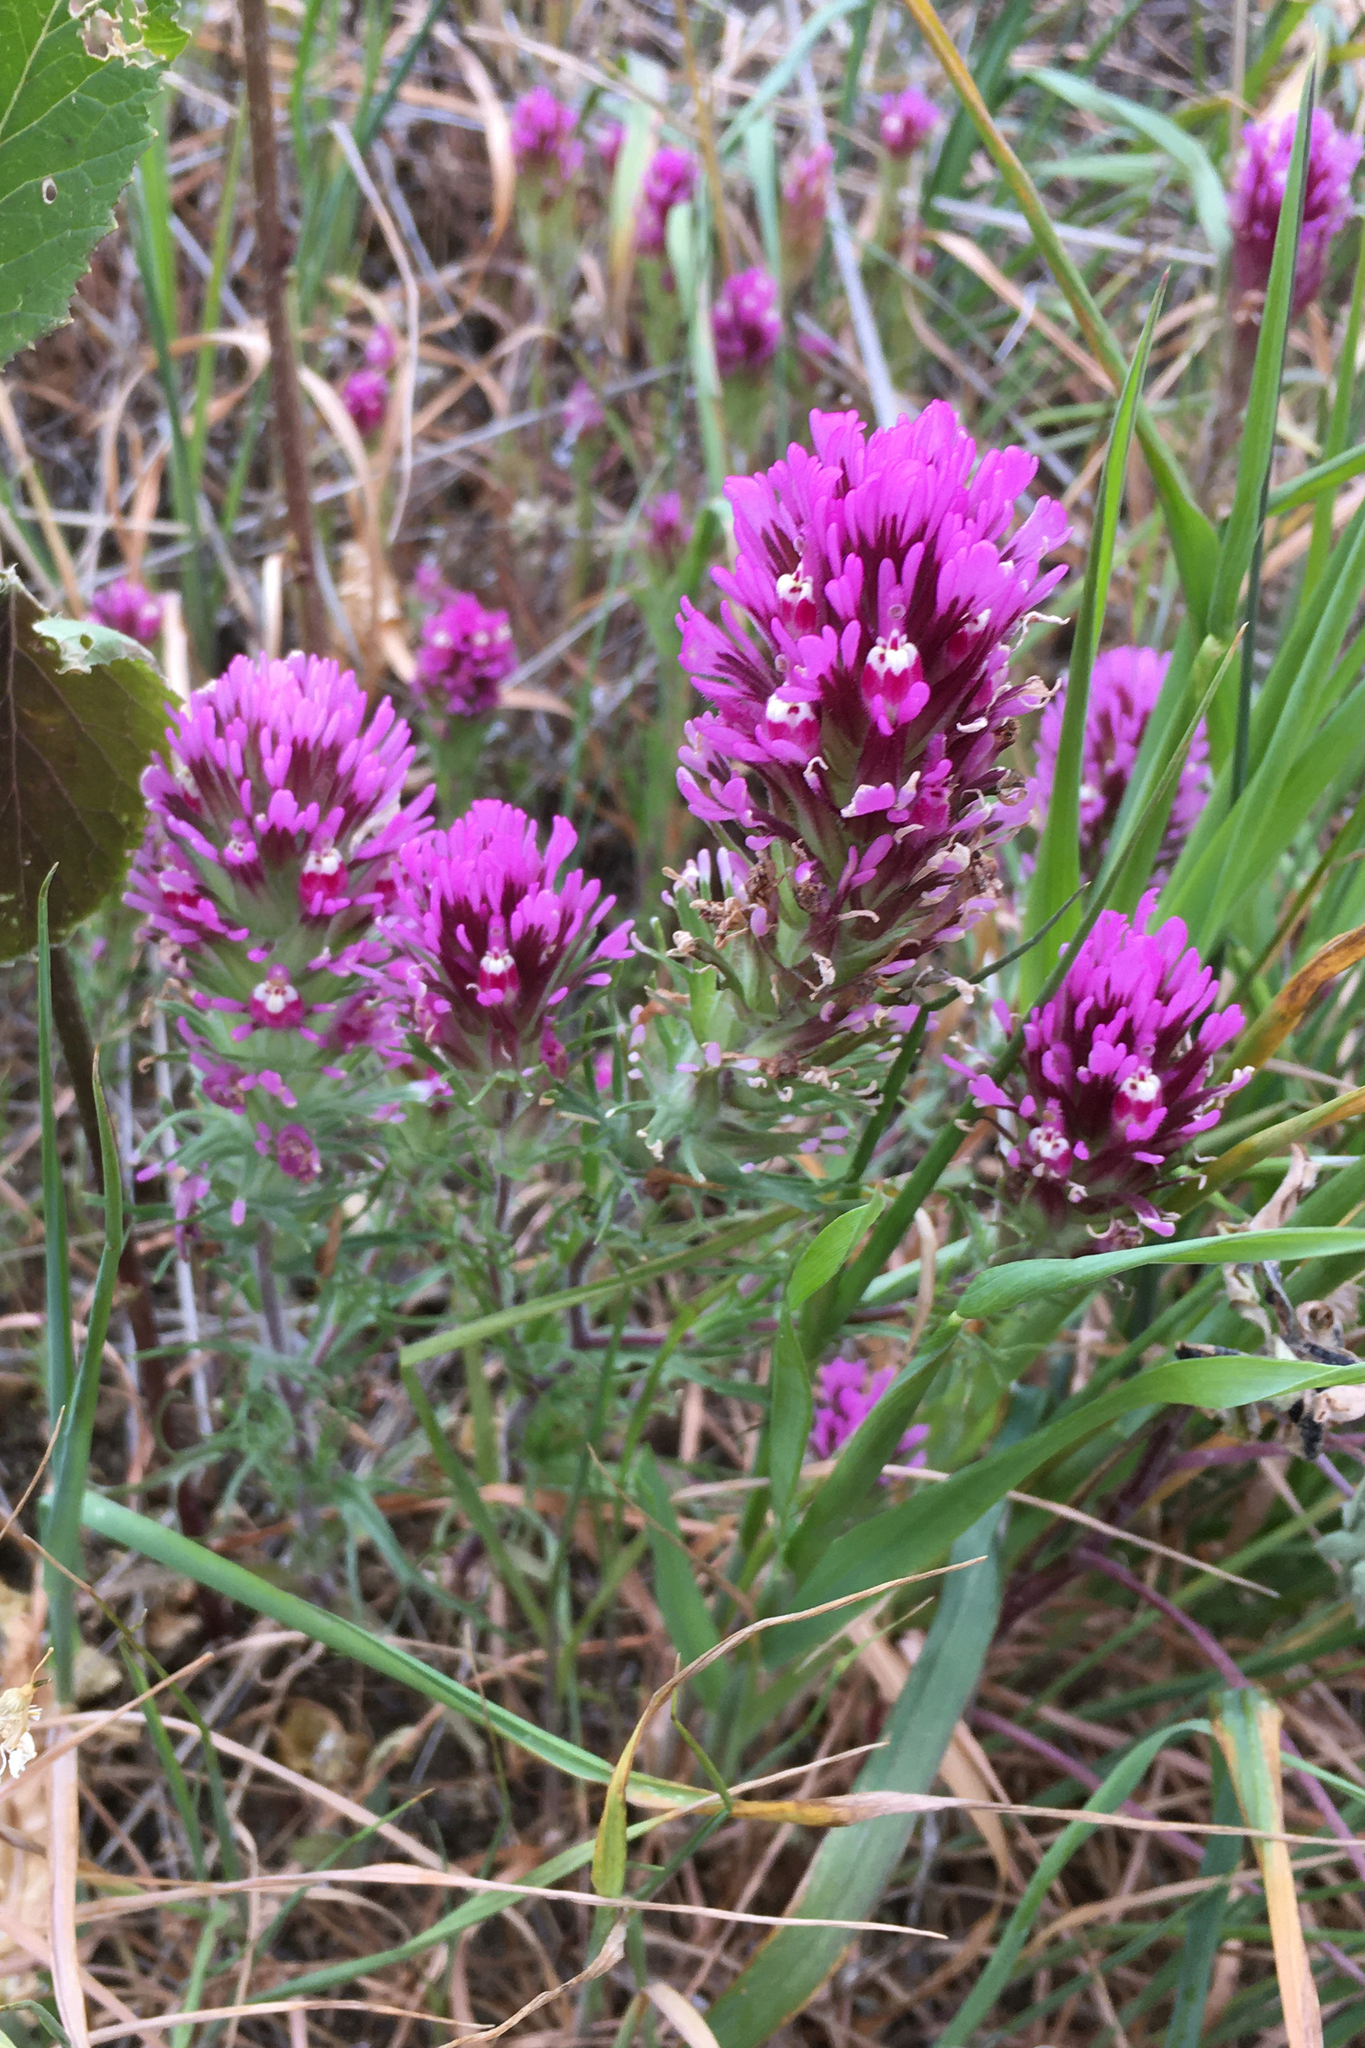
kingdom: Plantae
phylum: Tracheophyta
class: Magnoliopsida
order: Lamiales
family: Orobanchaceae
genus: Castilleja
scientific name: Castilleja exserta
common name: Purple owl-clover
